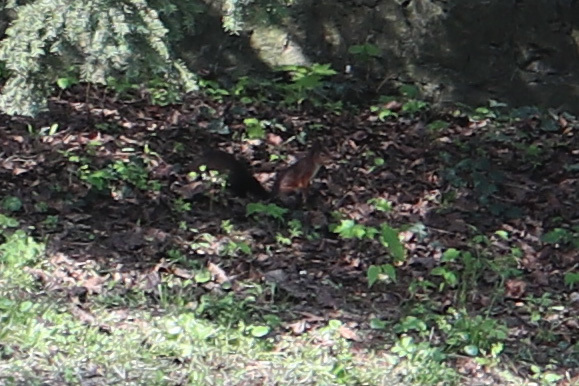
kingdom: Animalia
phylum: Chordata
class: Mammalia
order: Rodentia
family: Sciuridae
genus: Sciurus
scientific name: Sciurus vulgaris
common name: Eurasian red squirrel
